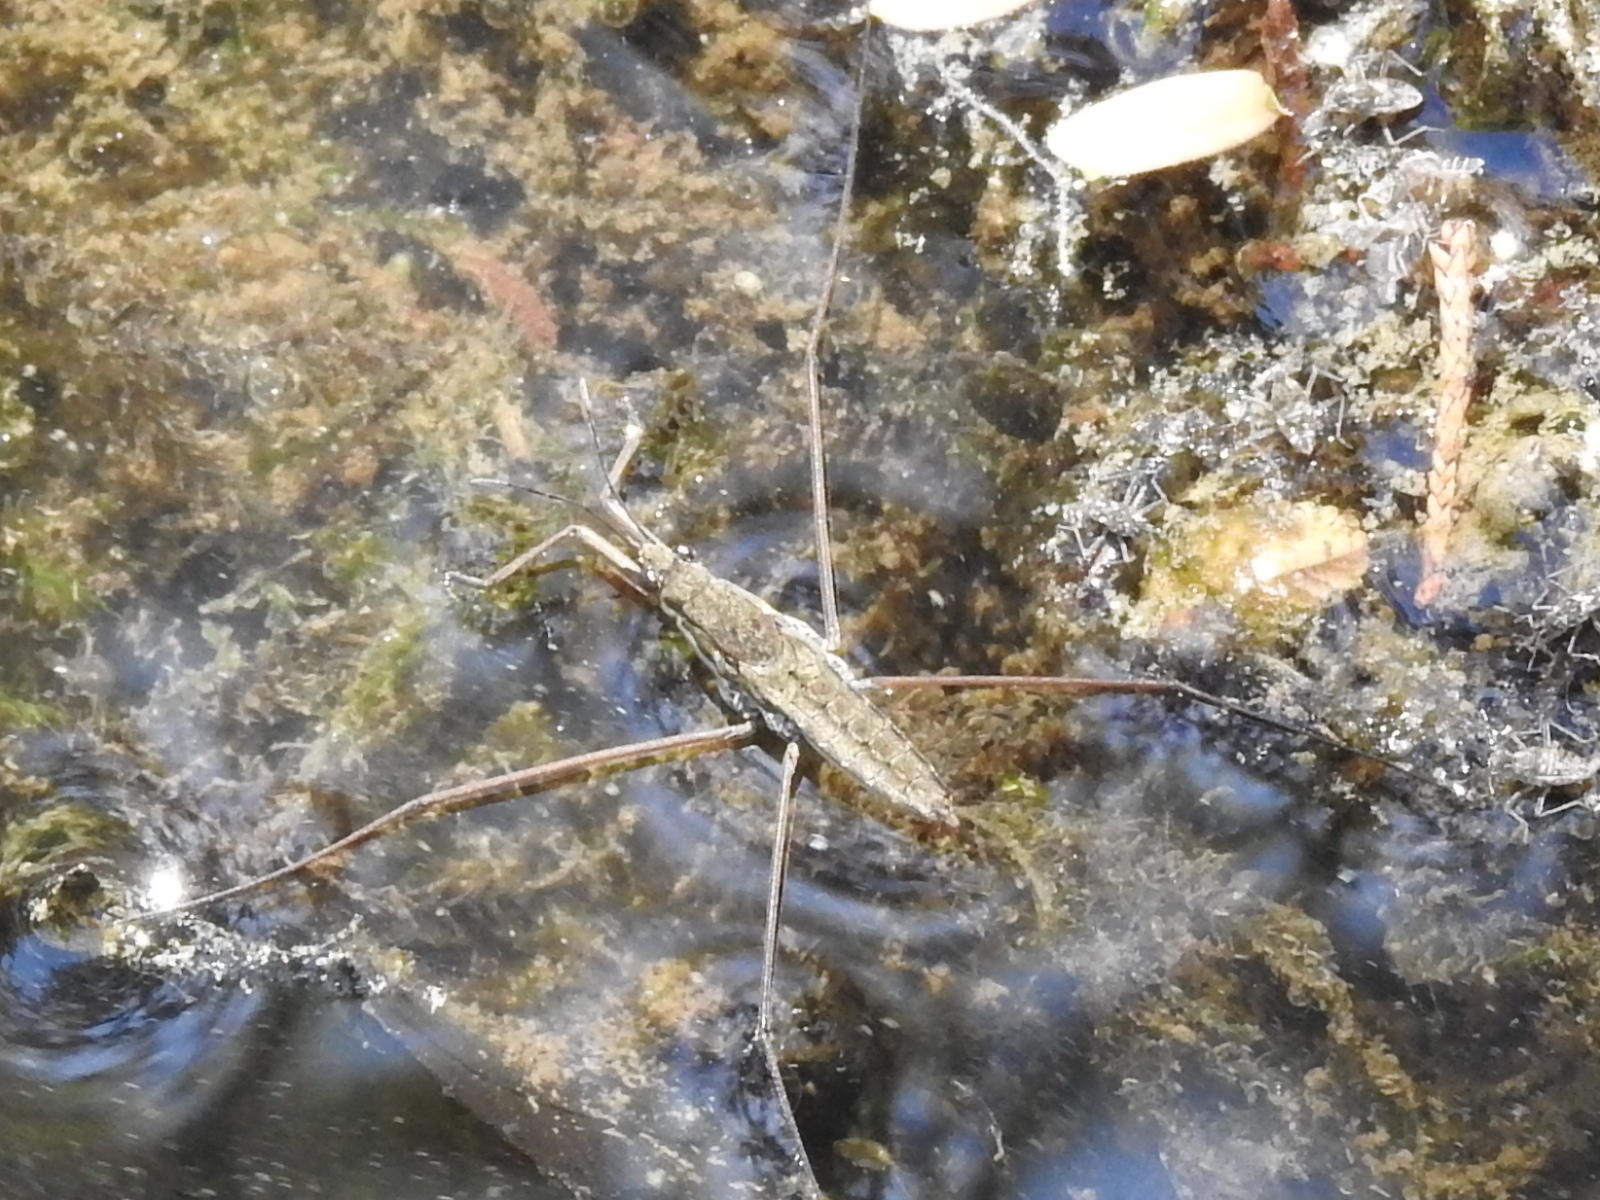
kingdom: Animalia
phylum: Arthropoda
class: Insecta
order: Hemiptera
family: Gerridae
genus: Aquarius
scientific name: Aquarius remigis
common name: Common water strider
